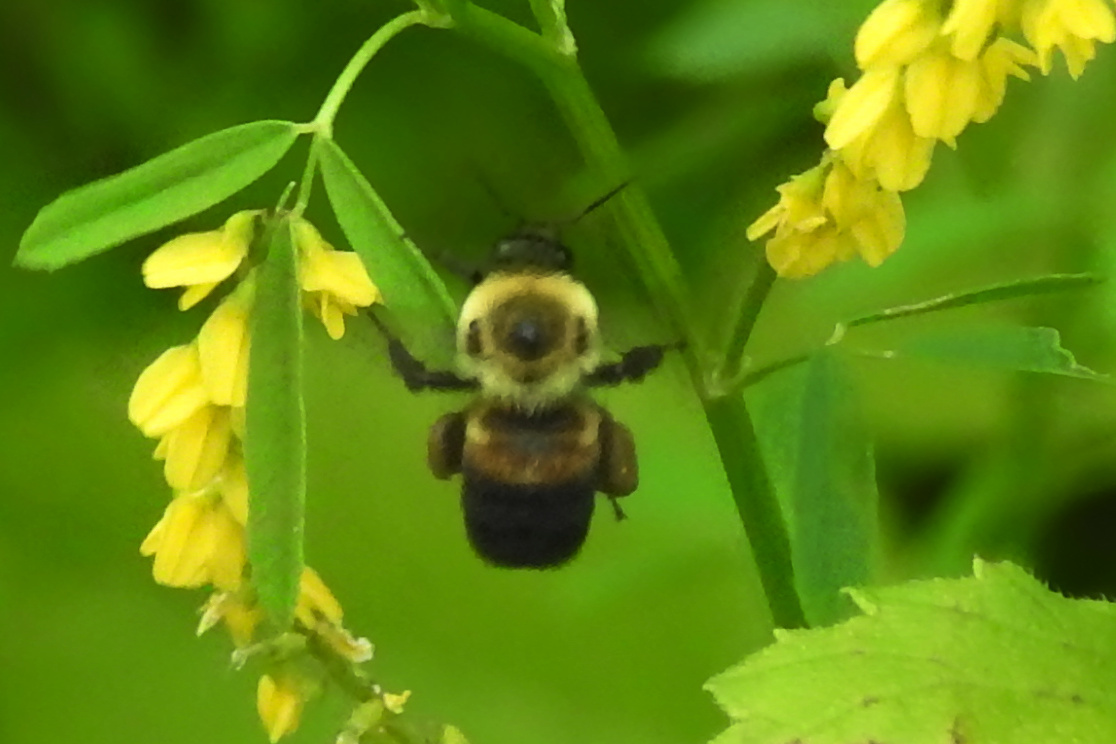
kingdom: Animalia
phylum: Arthropoda
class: Insecta
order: Hymenoptera
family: Apidae
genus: Bombus
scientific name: Bombus griseocollis
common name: Brown-belted bumble bee
